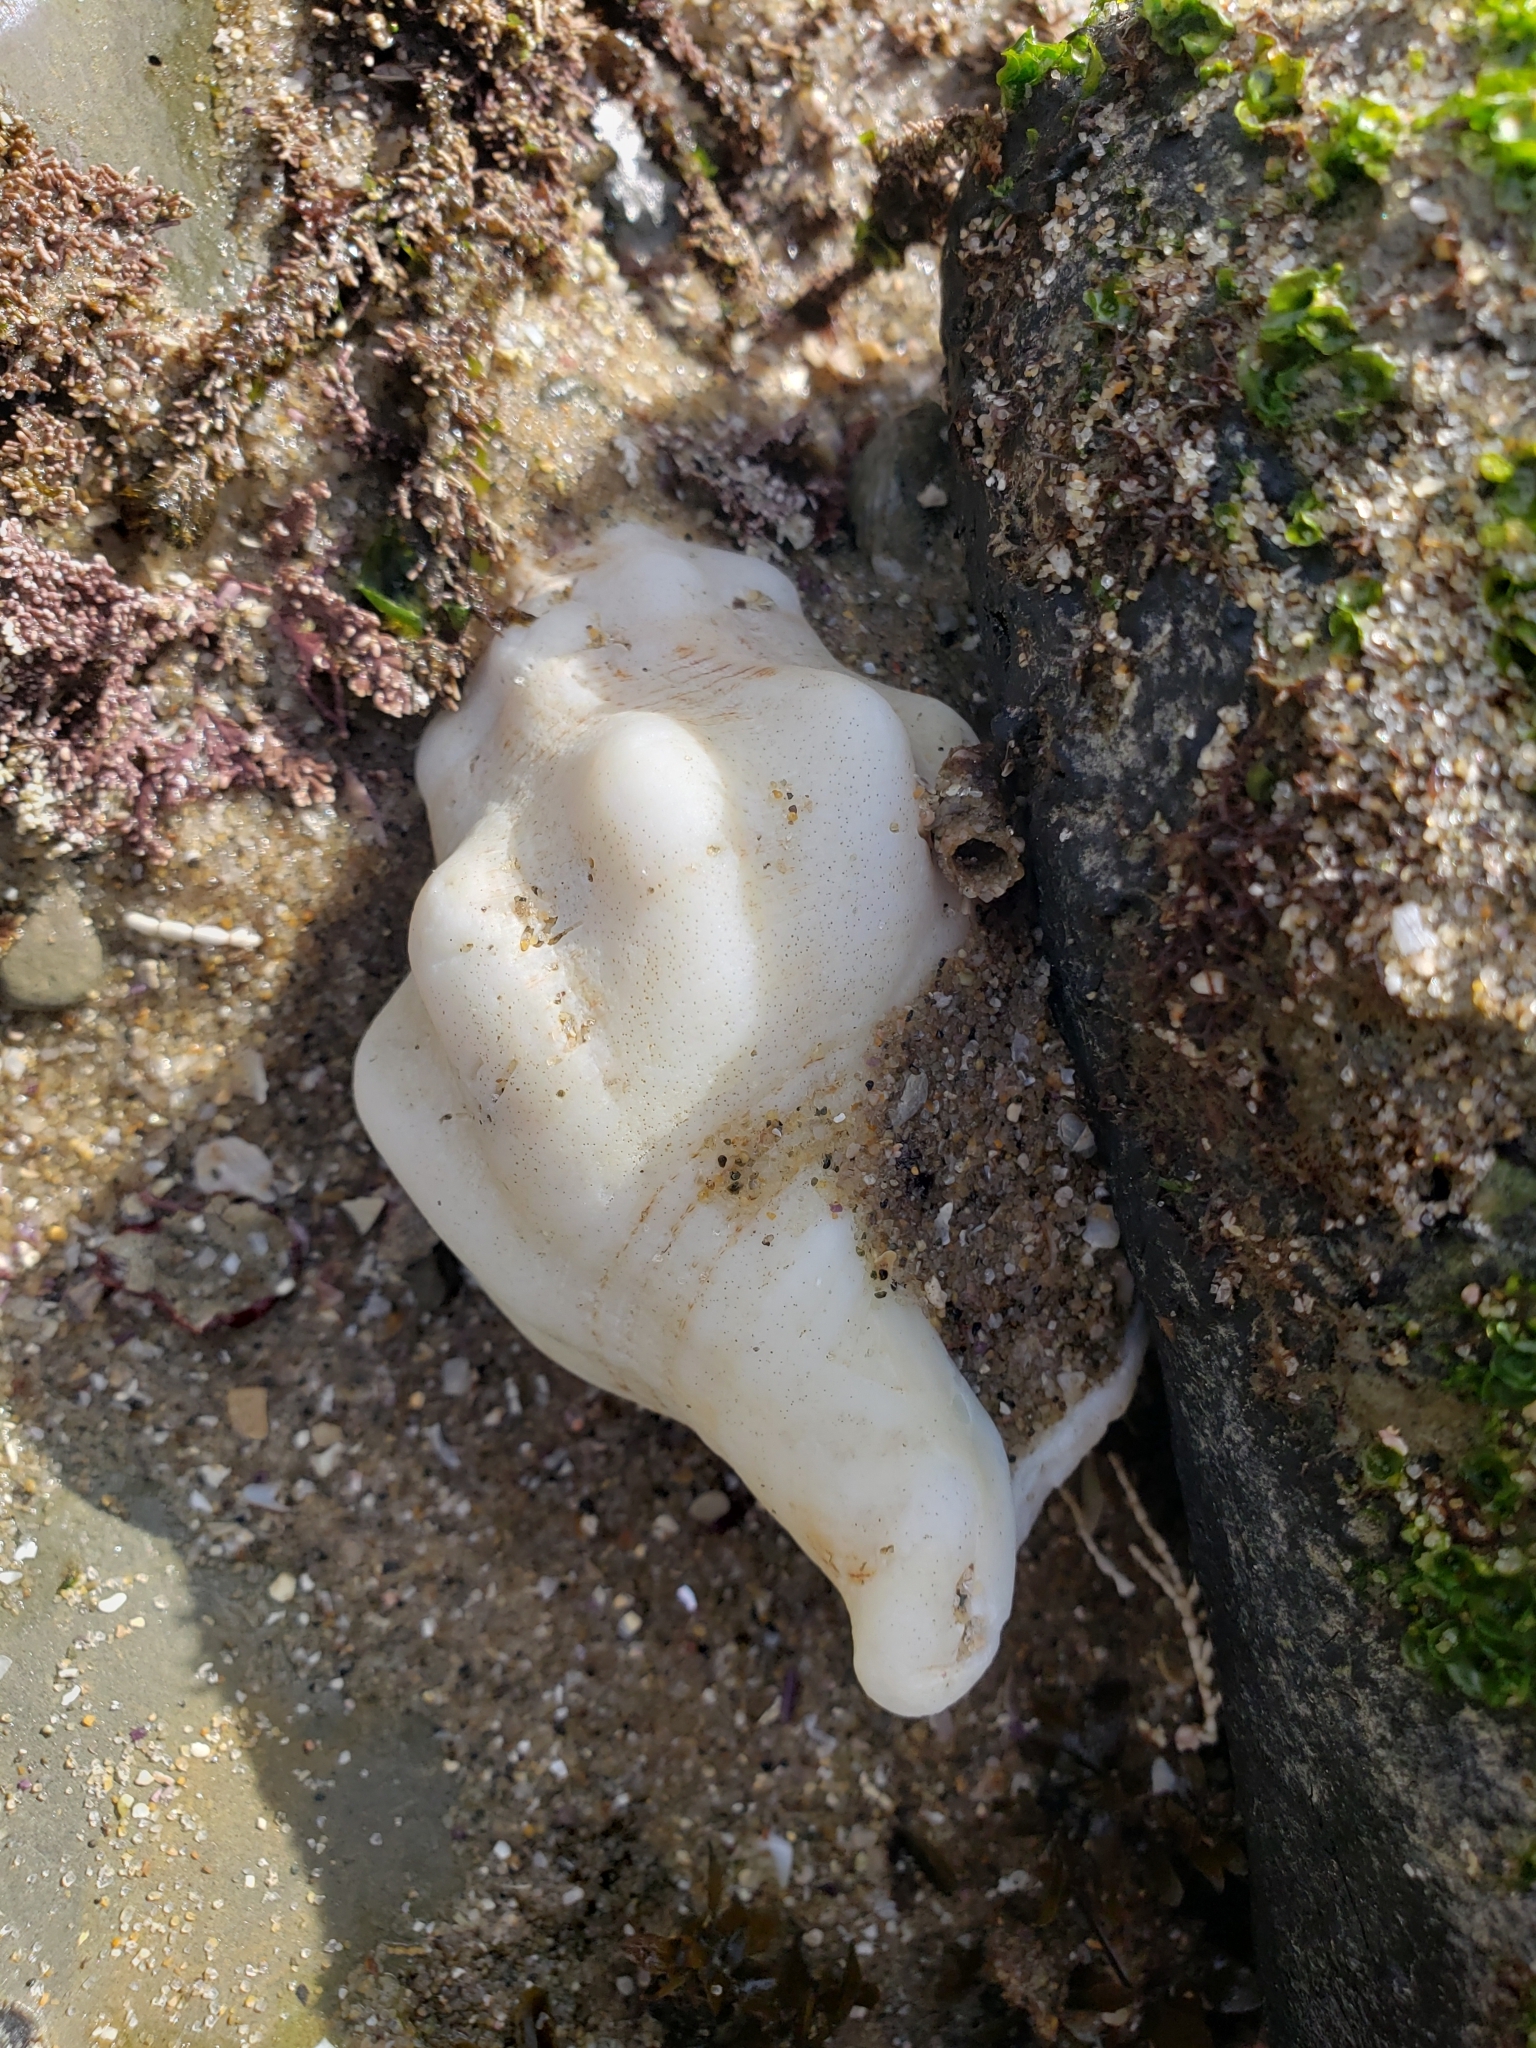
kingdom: Animalia
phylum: Mollusca
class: Gastropoda
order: Neogastropoda
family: Austrosiphonidae
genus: Kelletia
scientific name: Kelletia kelletii
